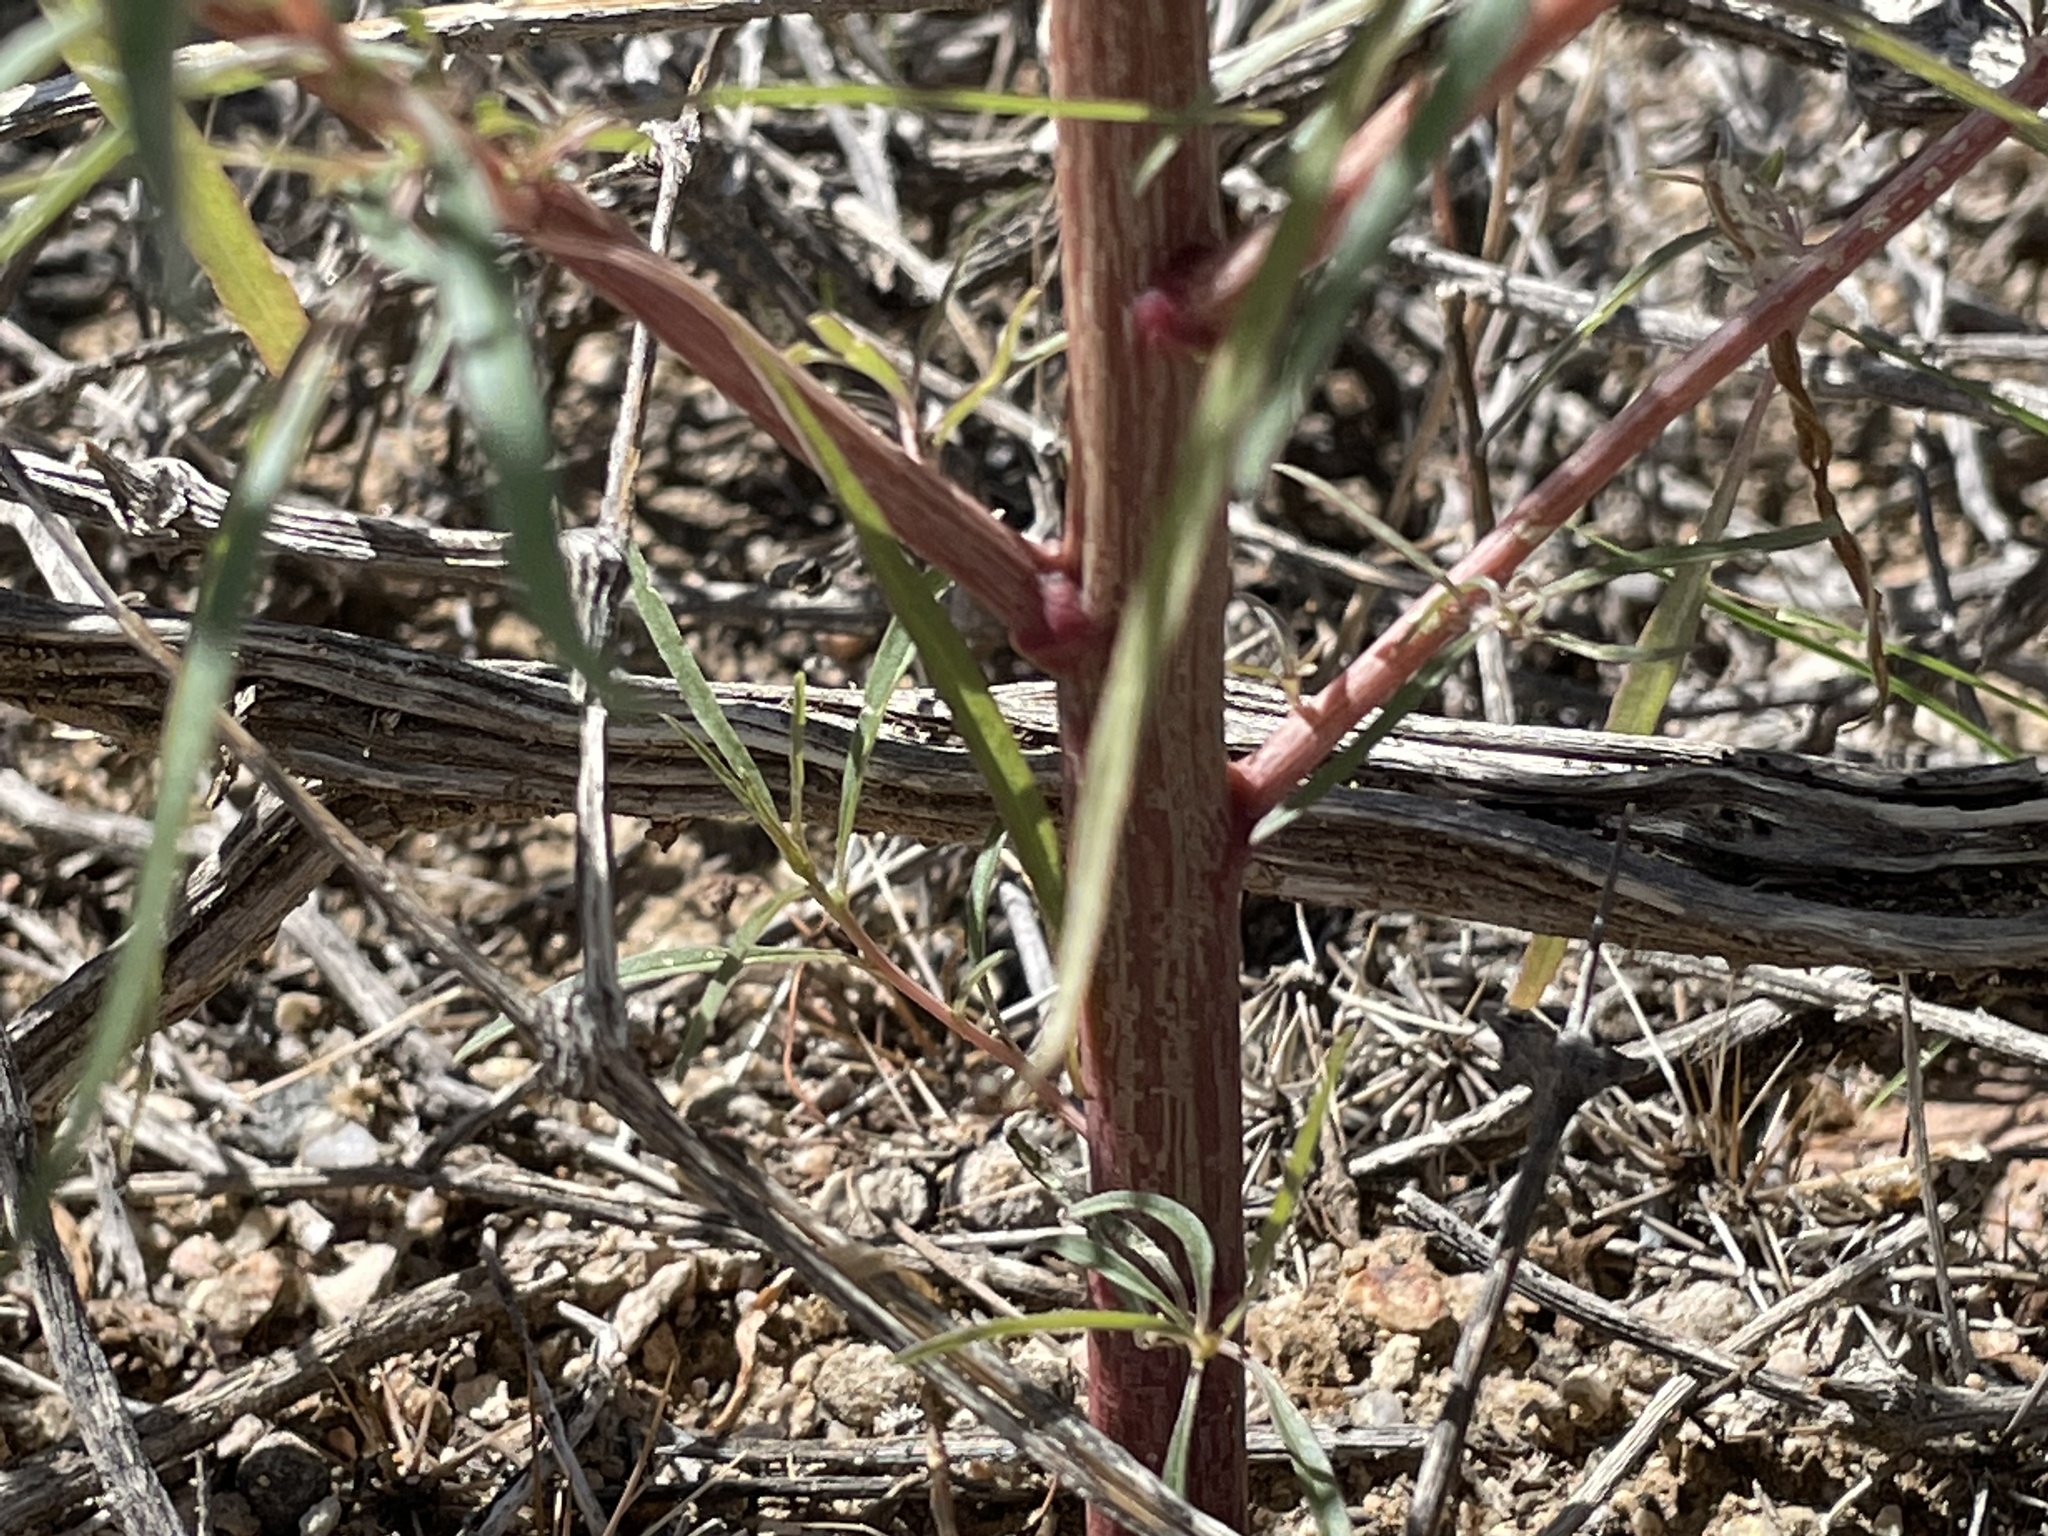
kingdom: Plantae
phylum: Tracheophyta
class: Magnoliopsida
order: Caryophyllales
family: Amaranthaceae
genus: Amaranthus
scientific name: Amaranthus fimbriatus
